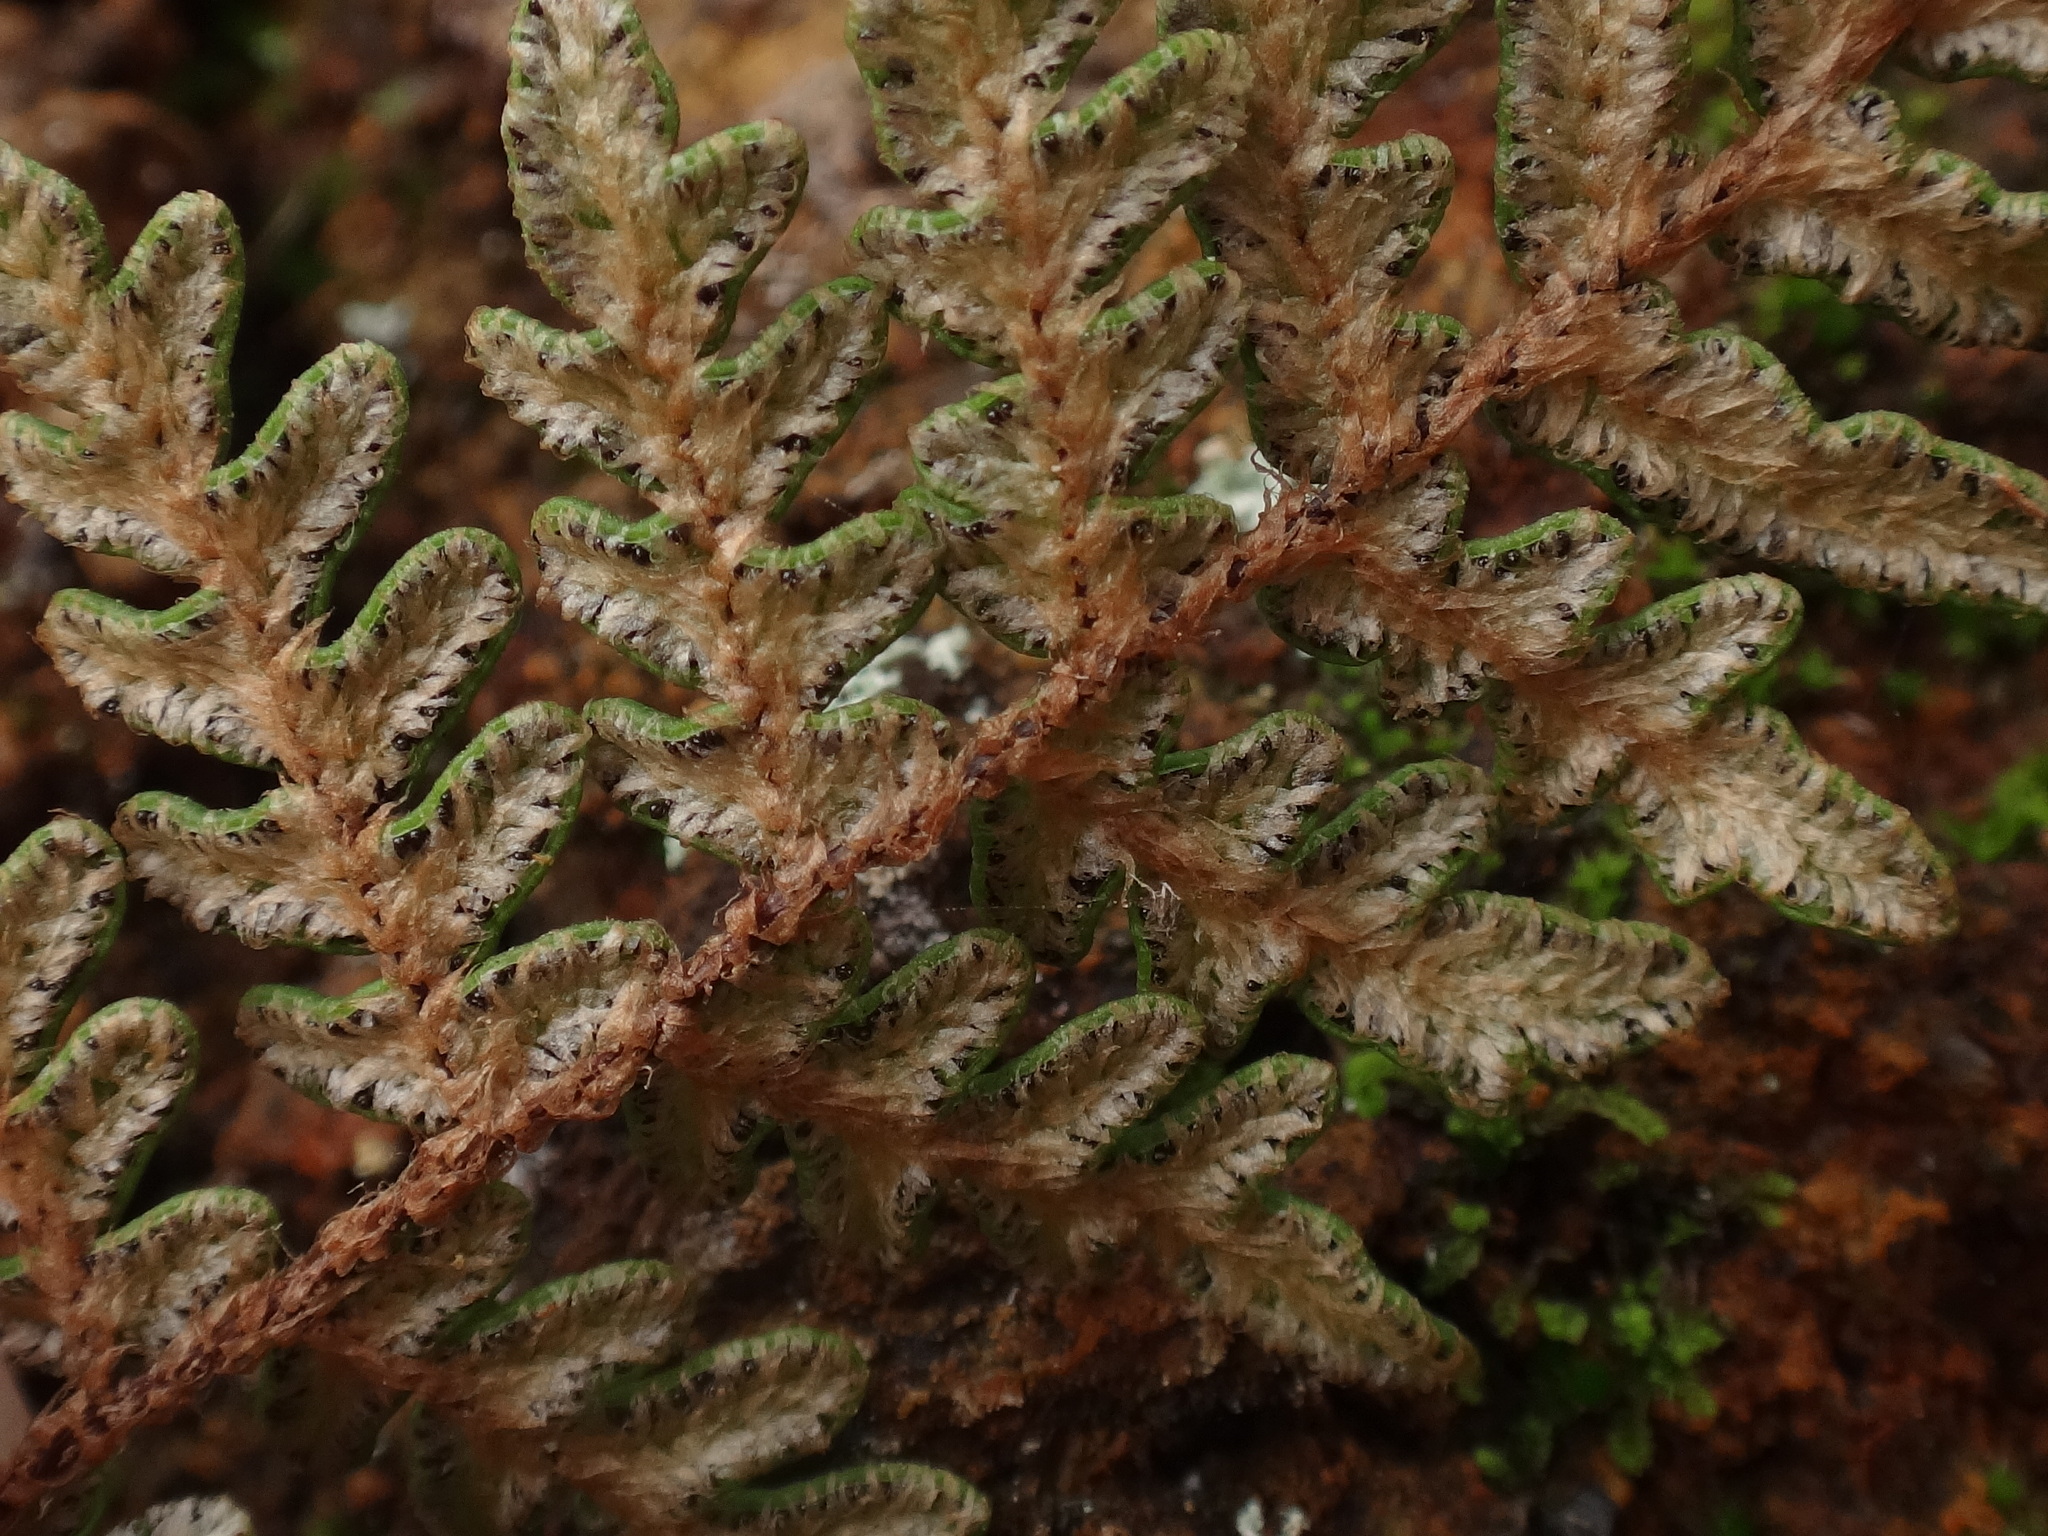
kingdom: Plantae
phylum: Tracheophyta
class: Polypodiopsida
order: Polypodiales
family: Pteridaceae
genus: Paragymnopteris
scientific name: Paragymnopteris marantae
